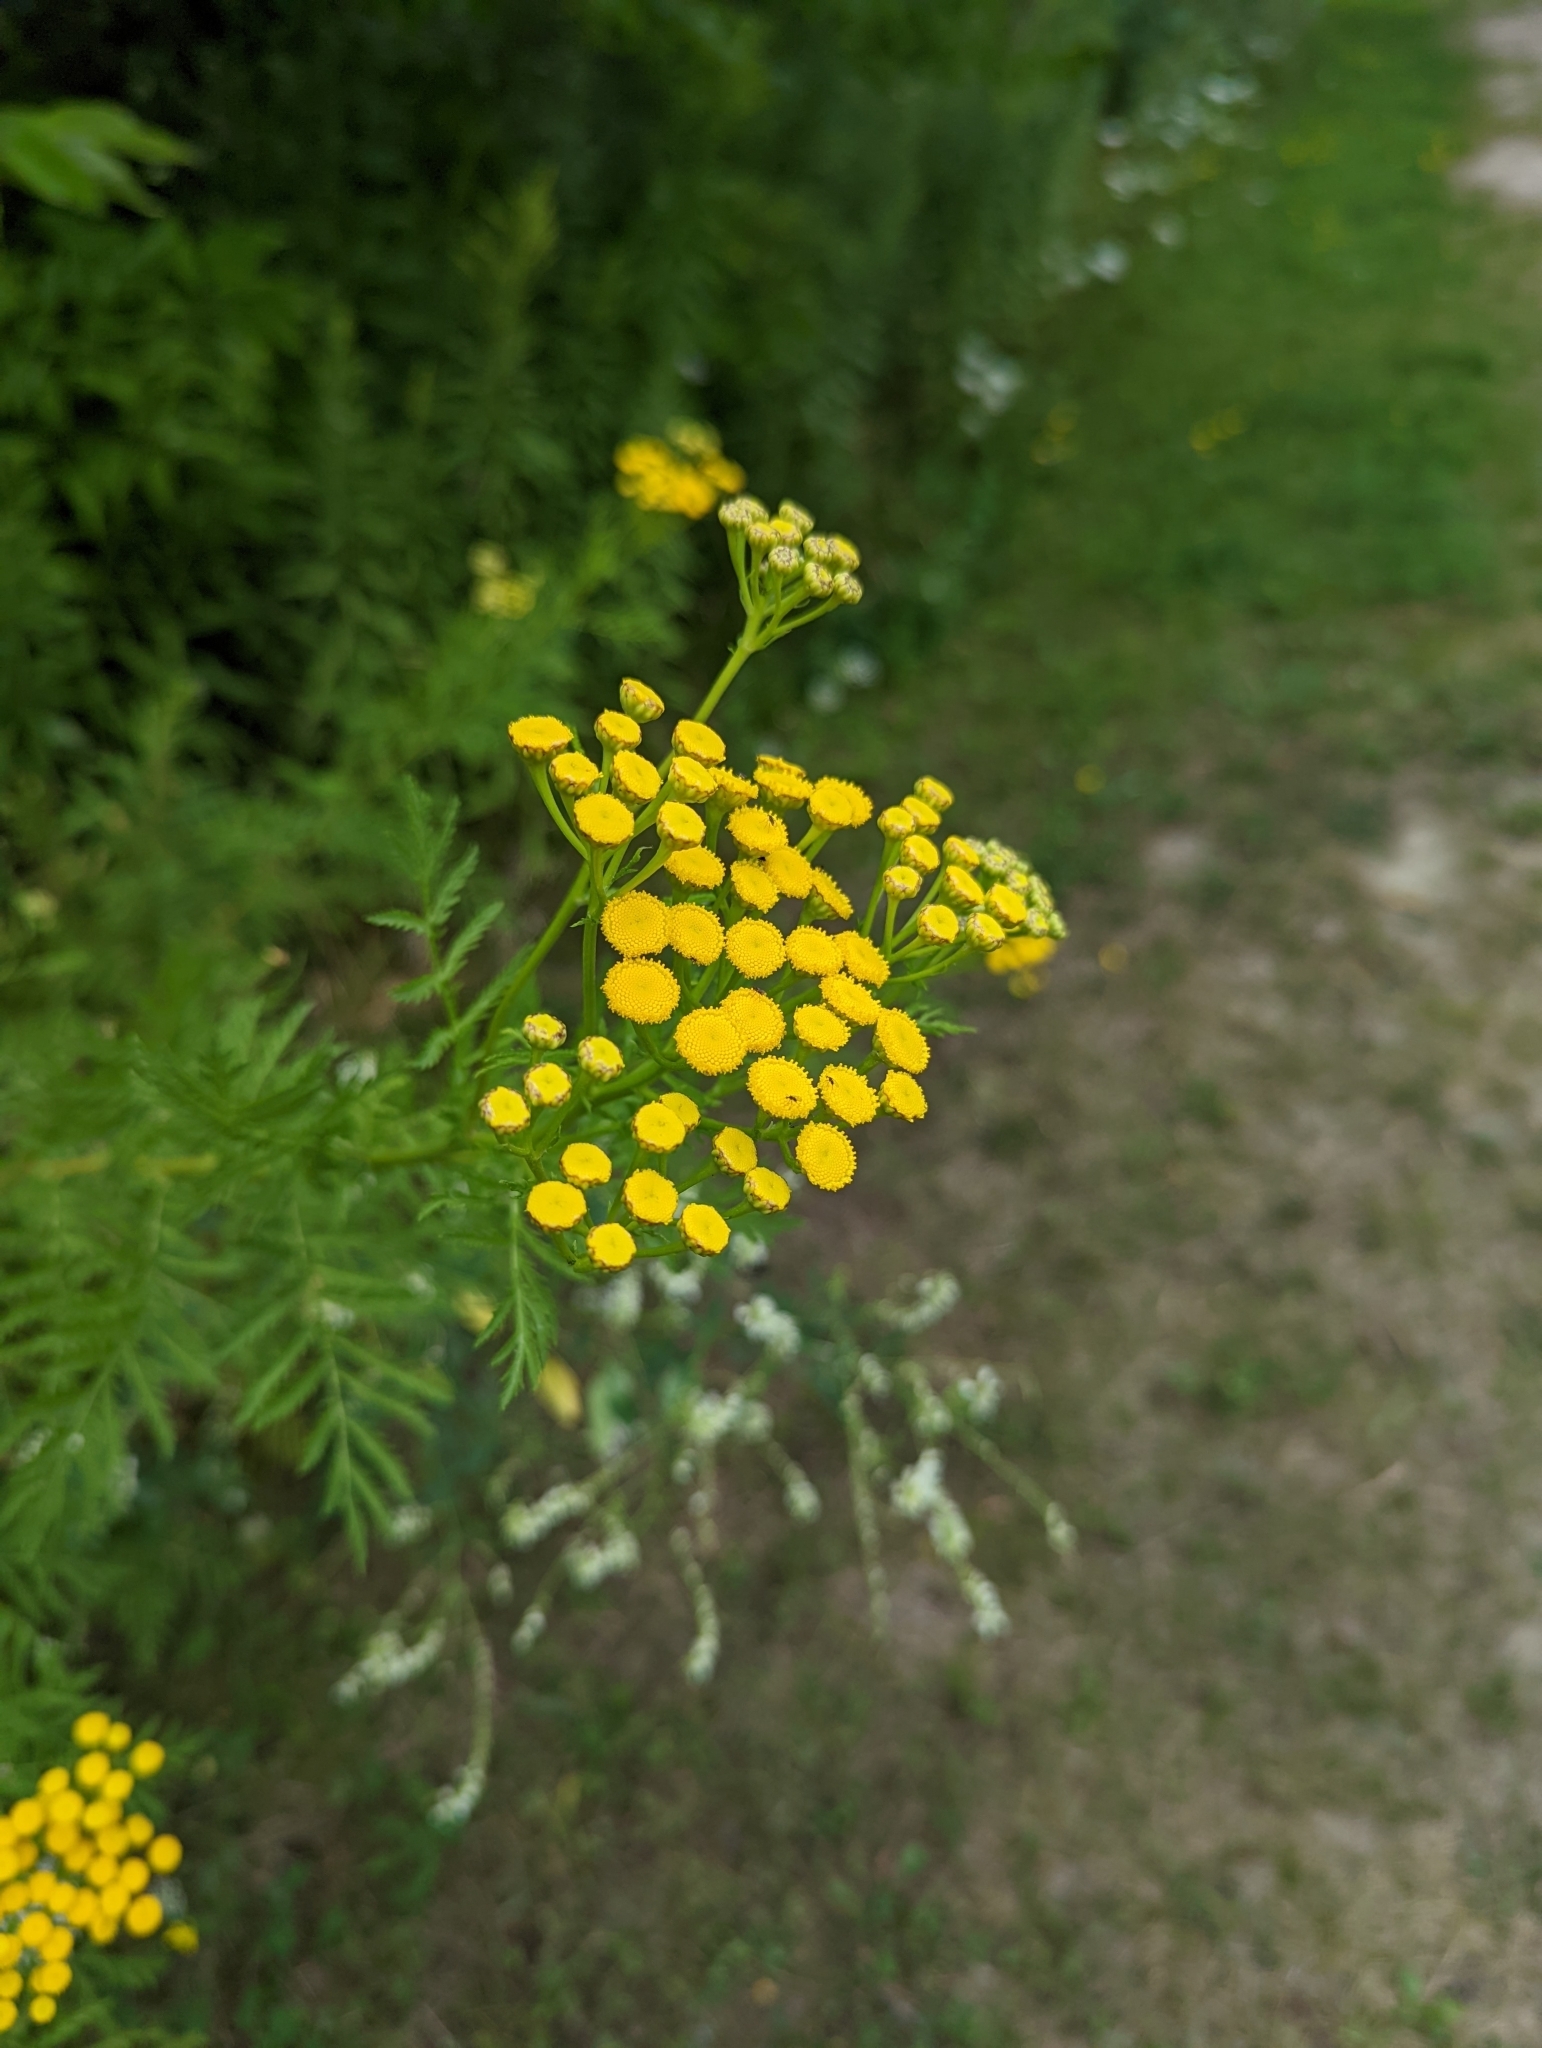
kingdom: Plantae
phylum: Tracheophyta
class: Magnoliopsida
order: Asterales
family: Asteraceae
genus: Tanacetum
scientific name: Tanacetum vulgare
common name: Common tansy
